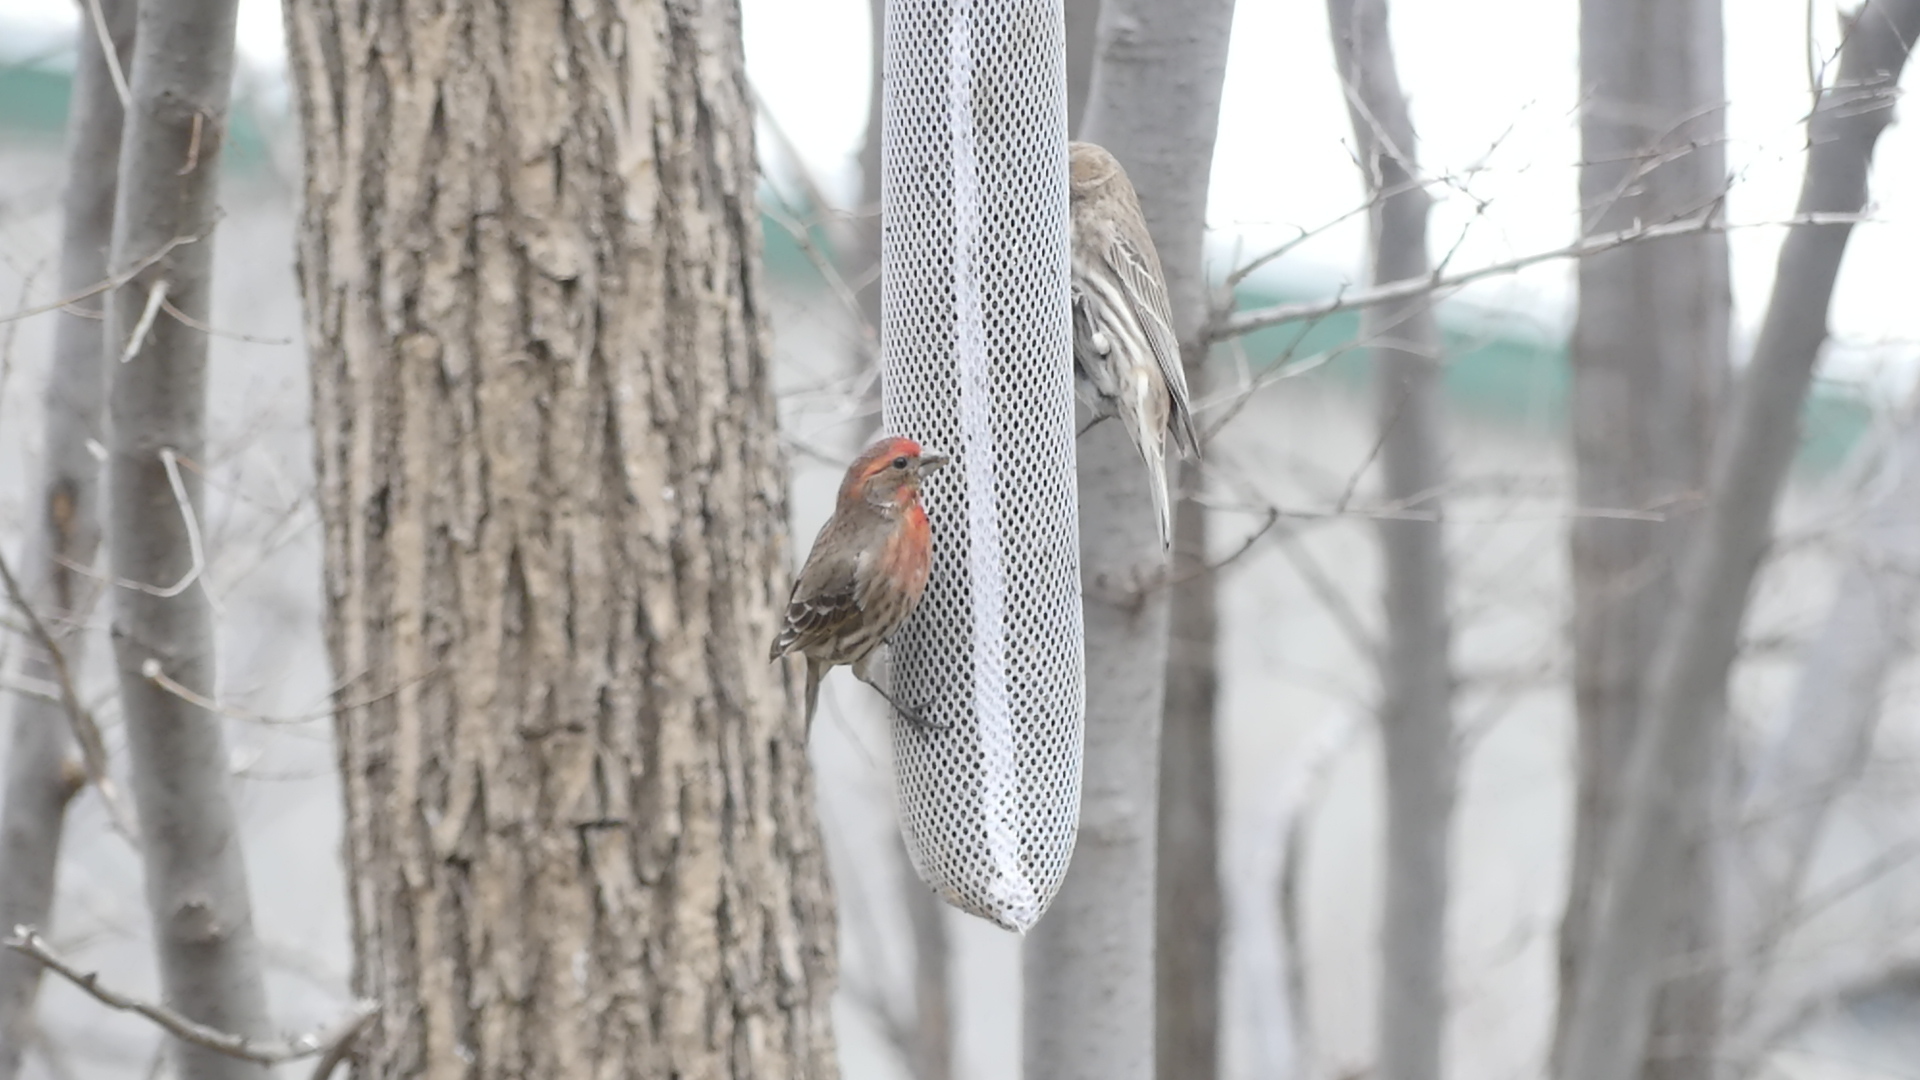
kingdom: Animalia
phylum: Chordata
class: Aves
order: Passeriformes
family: Fringillidae
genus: Haemorhous
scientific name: Haemorhous mexicanus
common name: House finch
